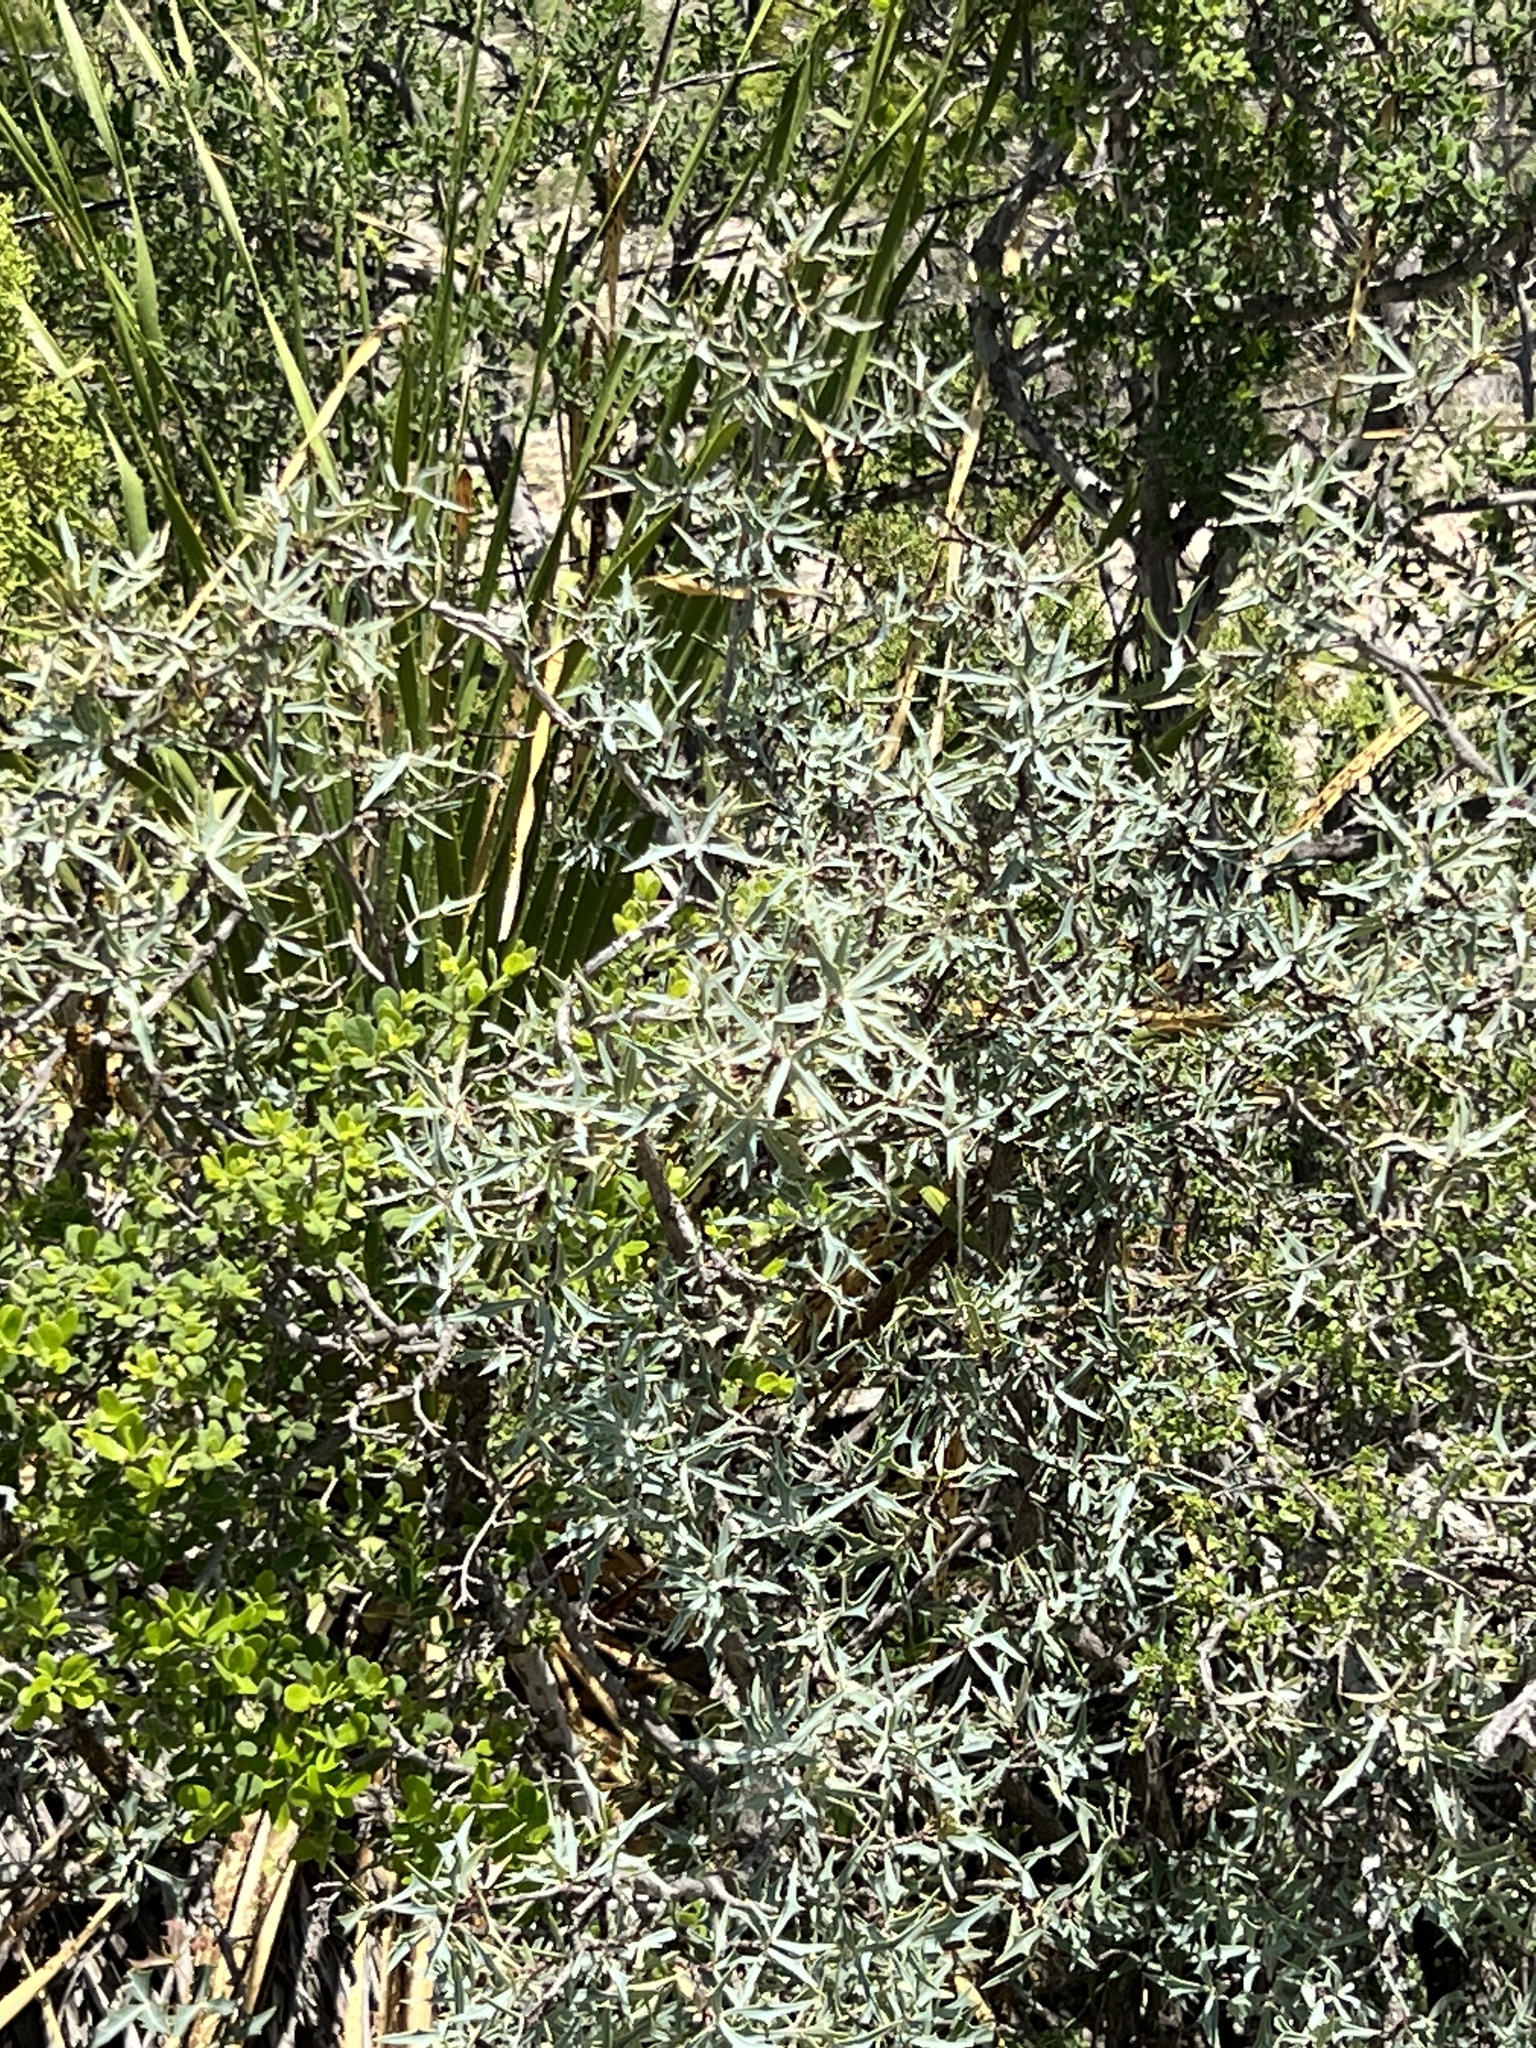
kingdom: Plantae
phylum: Tracheophyta
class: Magnoliopsida
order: Ranunculales
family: Berberidaceae
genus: Alloberberis
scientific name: Alloberberis trifoliolata
